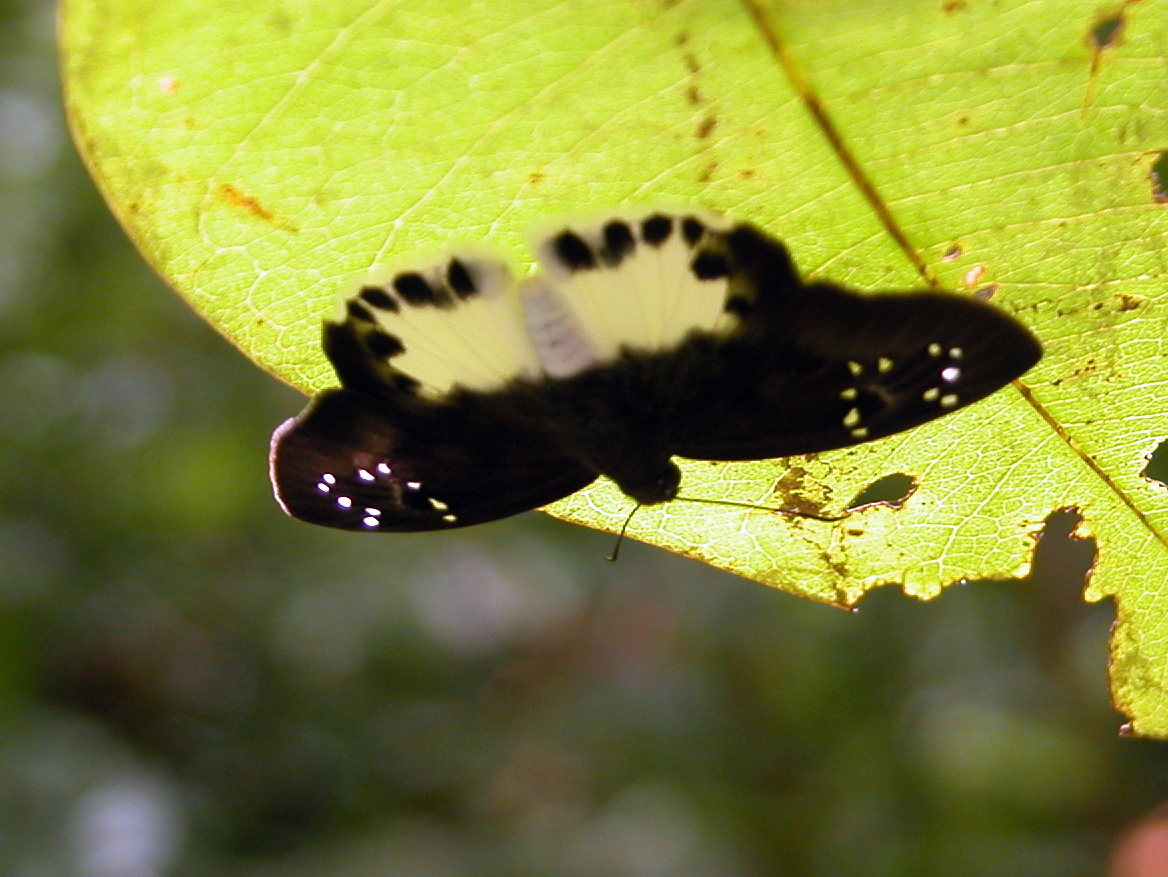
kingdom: Animalia
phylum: Arthropoda
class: Insecta
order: Lepidoptera
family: Hesperiidae
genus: Tagiades
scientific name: Tagiades litigiosa
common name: Water snow flat
